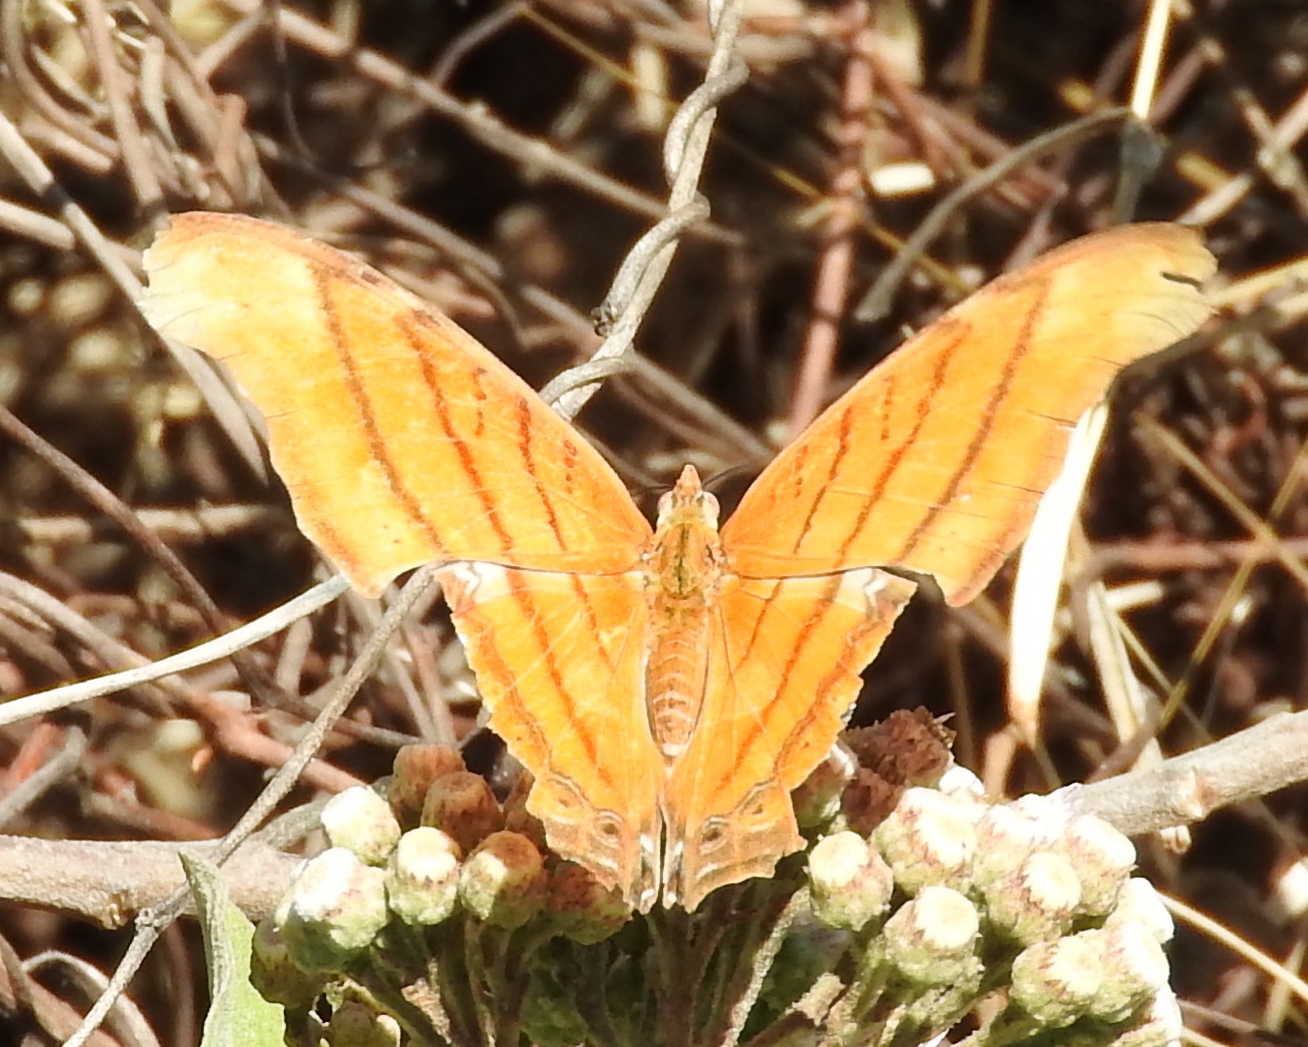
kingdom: Animalia
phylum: Arthropoda
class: Insecta
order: Lepidoptera
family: Nymphalidae
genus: Marpesia
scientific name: Marpesia petreus
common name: Red dagger wing
